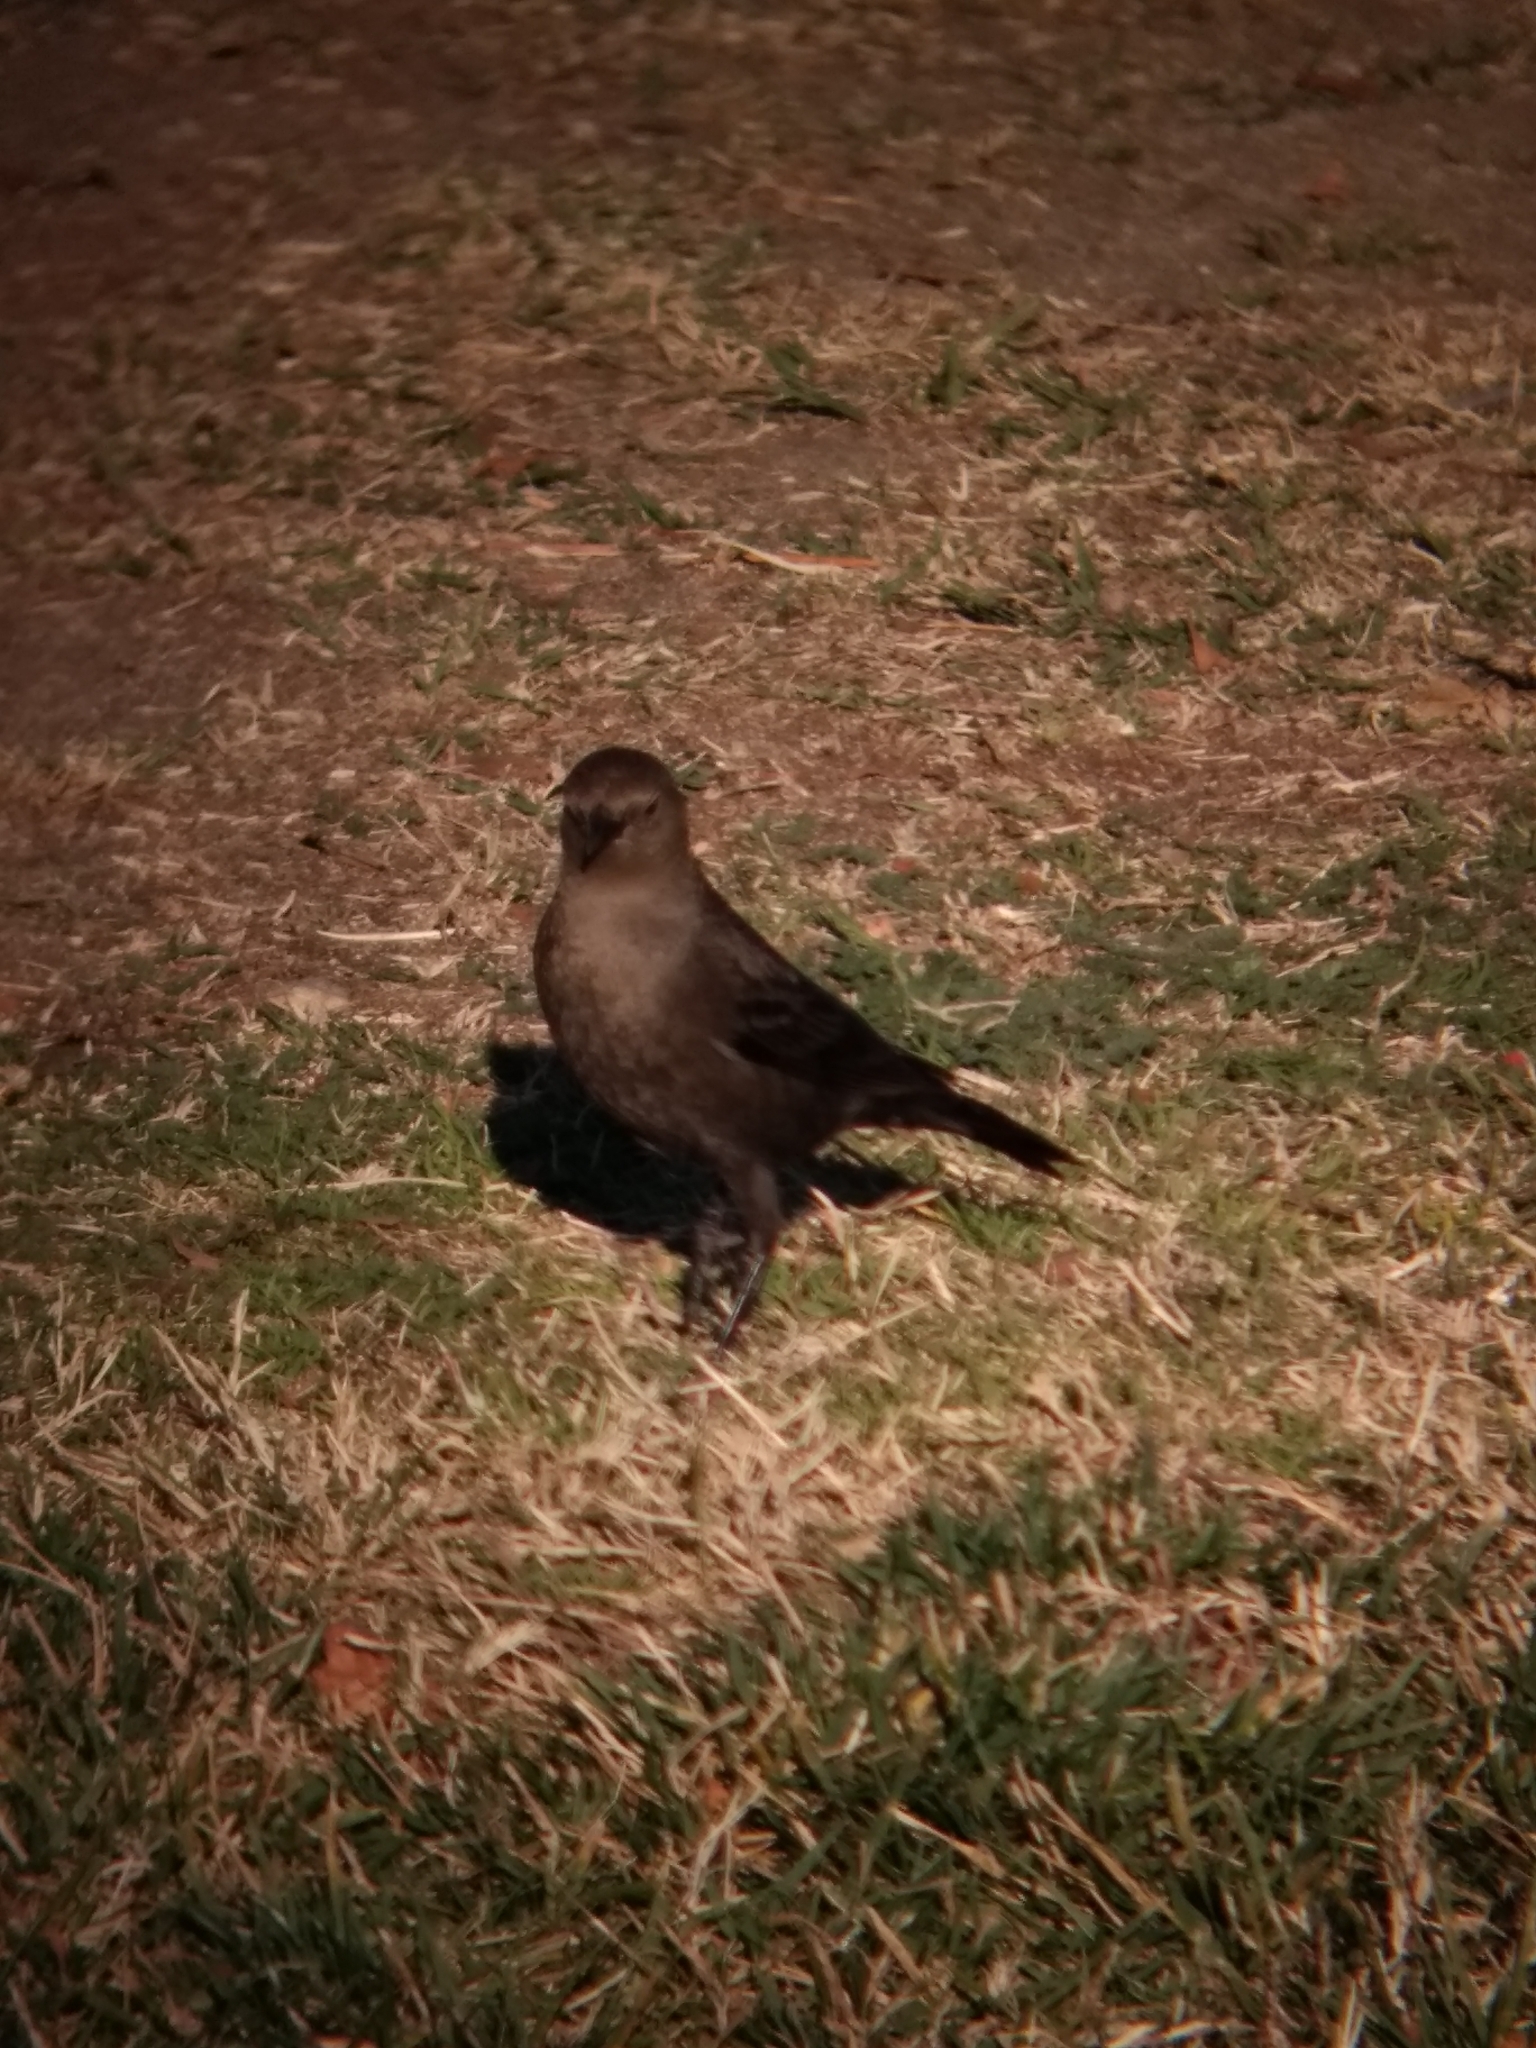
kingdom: Animalia
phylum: Chordata
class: Aves
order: Passeriformes
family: Icteridae
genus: Euphagus
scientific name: Euphagus cyanocephalus
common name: Brewer's blackbird
